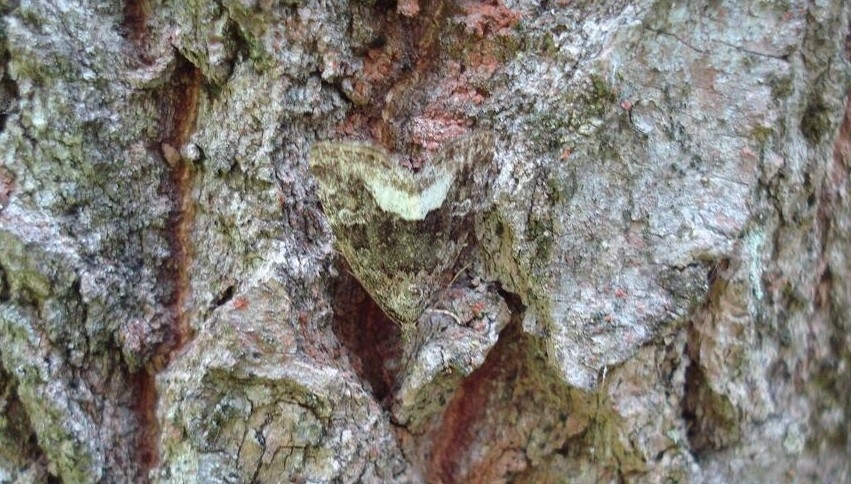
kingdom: Animalia
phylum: Arthropoda
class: Insecta
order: Lepidoptera
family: Noctuidae
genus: Deltote
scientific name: Deltote pygarga
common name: Marbled white spot
